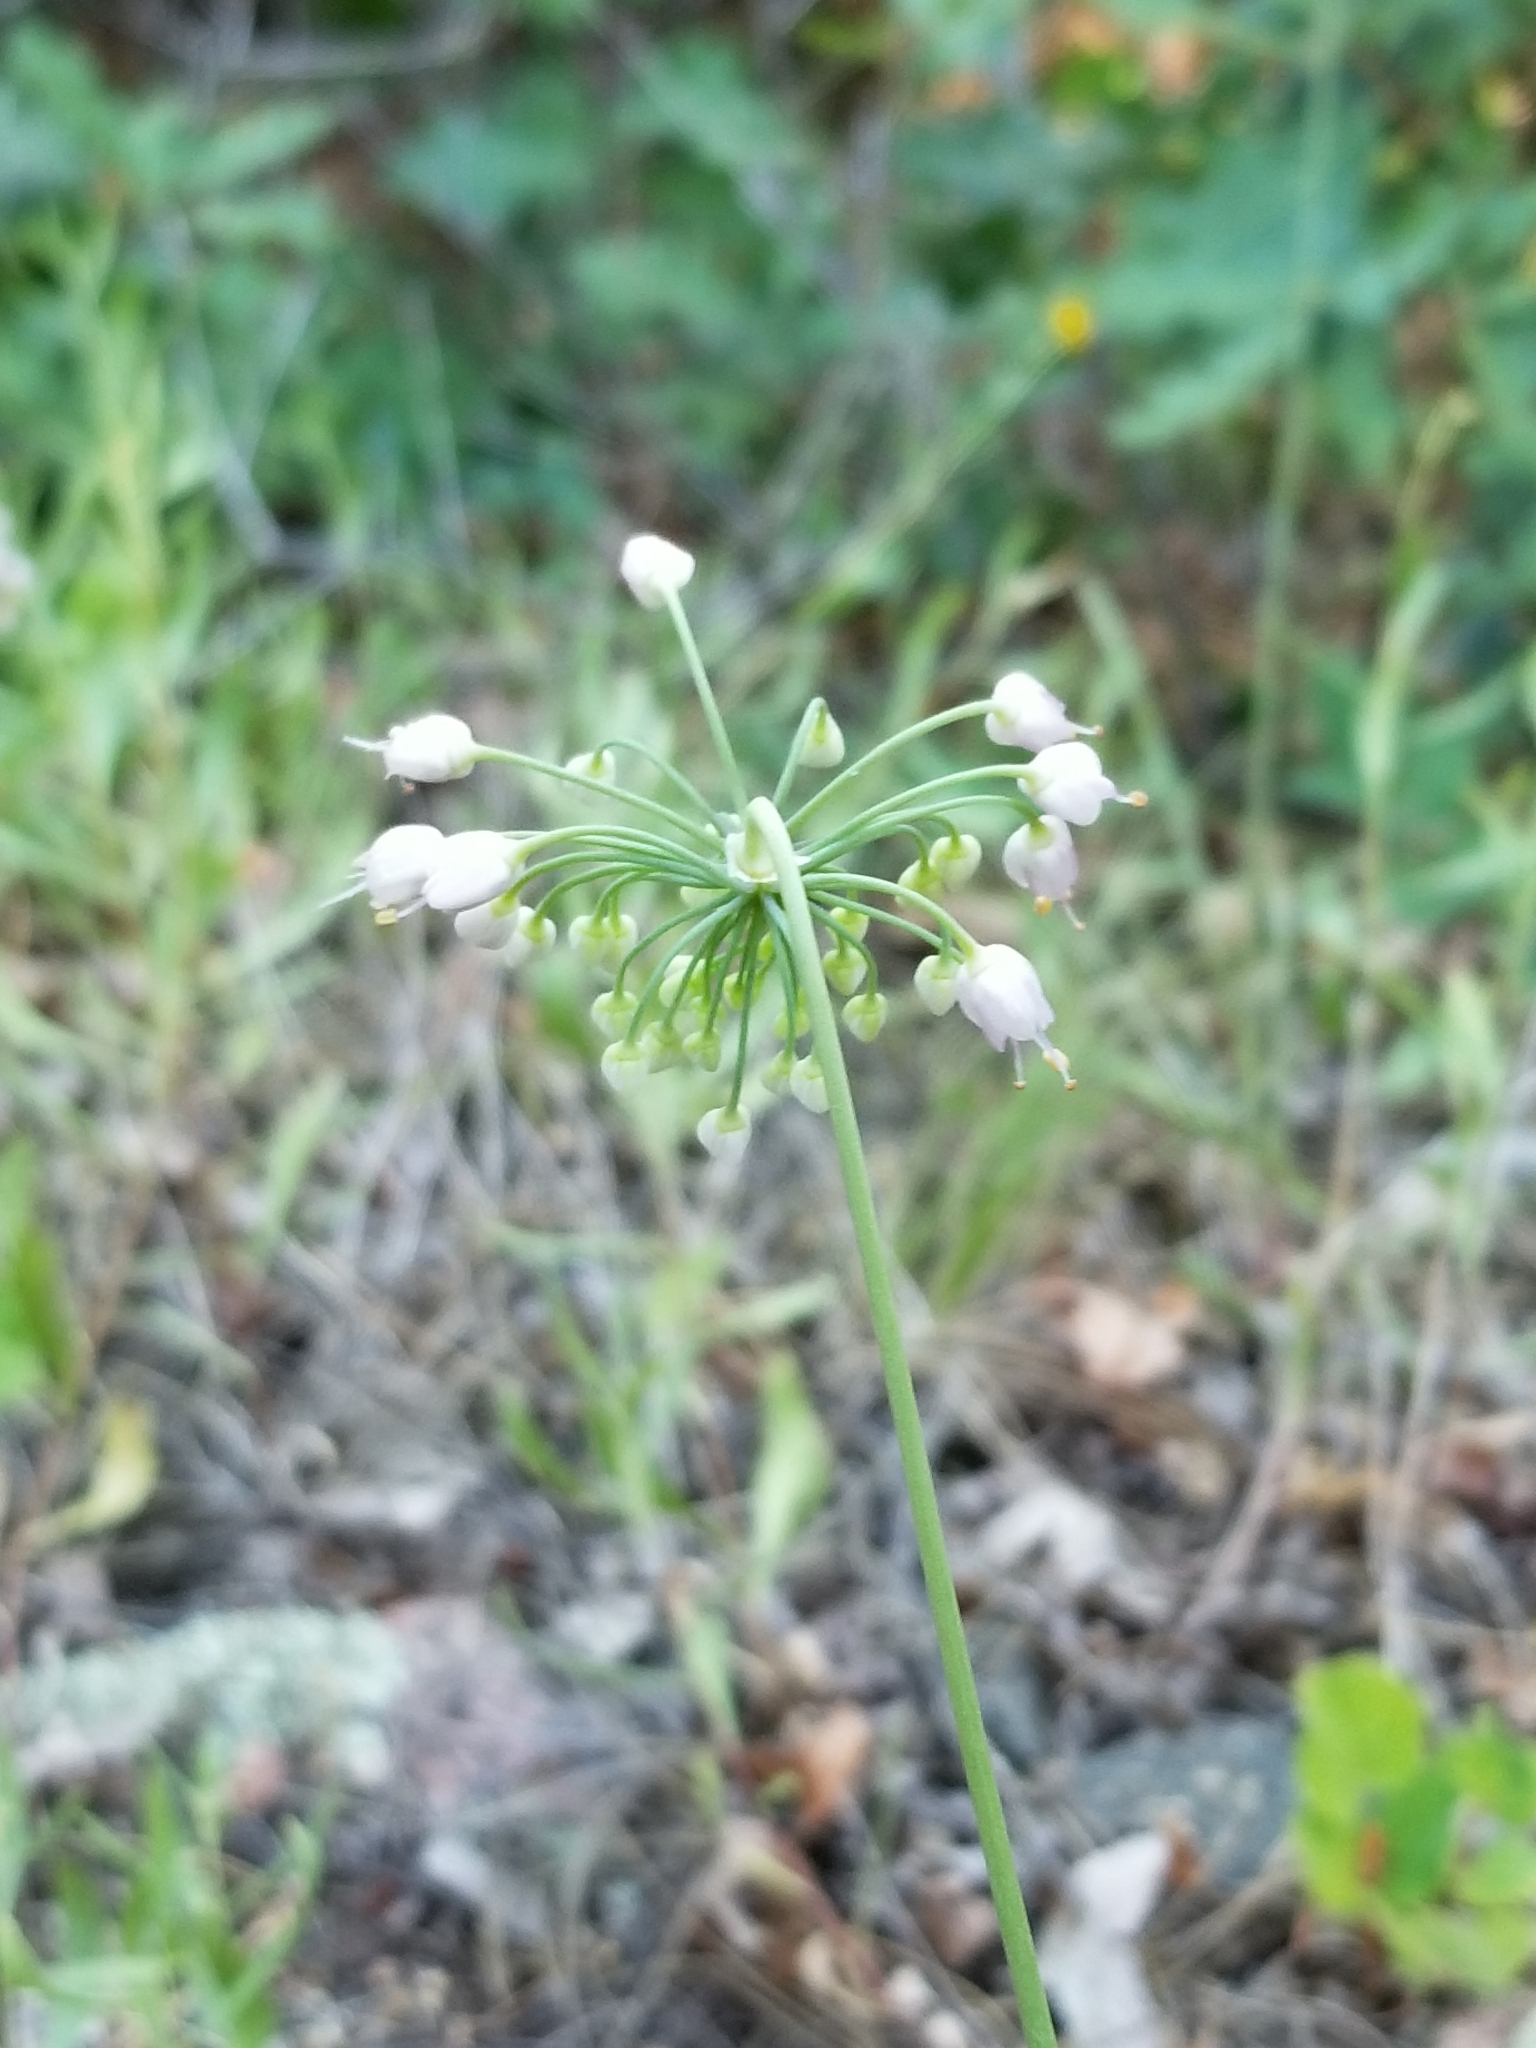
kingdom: Plantae
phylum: Tracheophyta
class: Liliopsida
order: Asparagales
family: Amaryllidaceae
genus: Allium
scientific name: Allium cernuum
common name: Nodding onion
